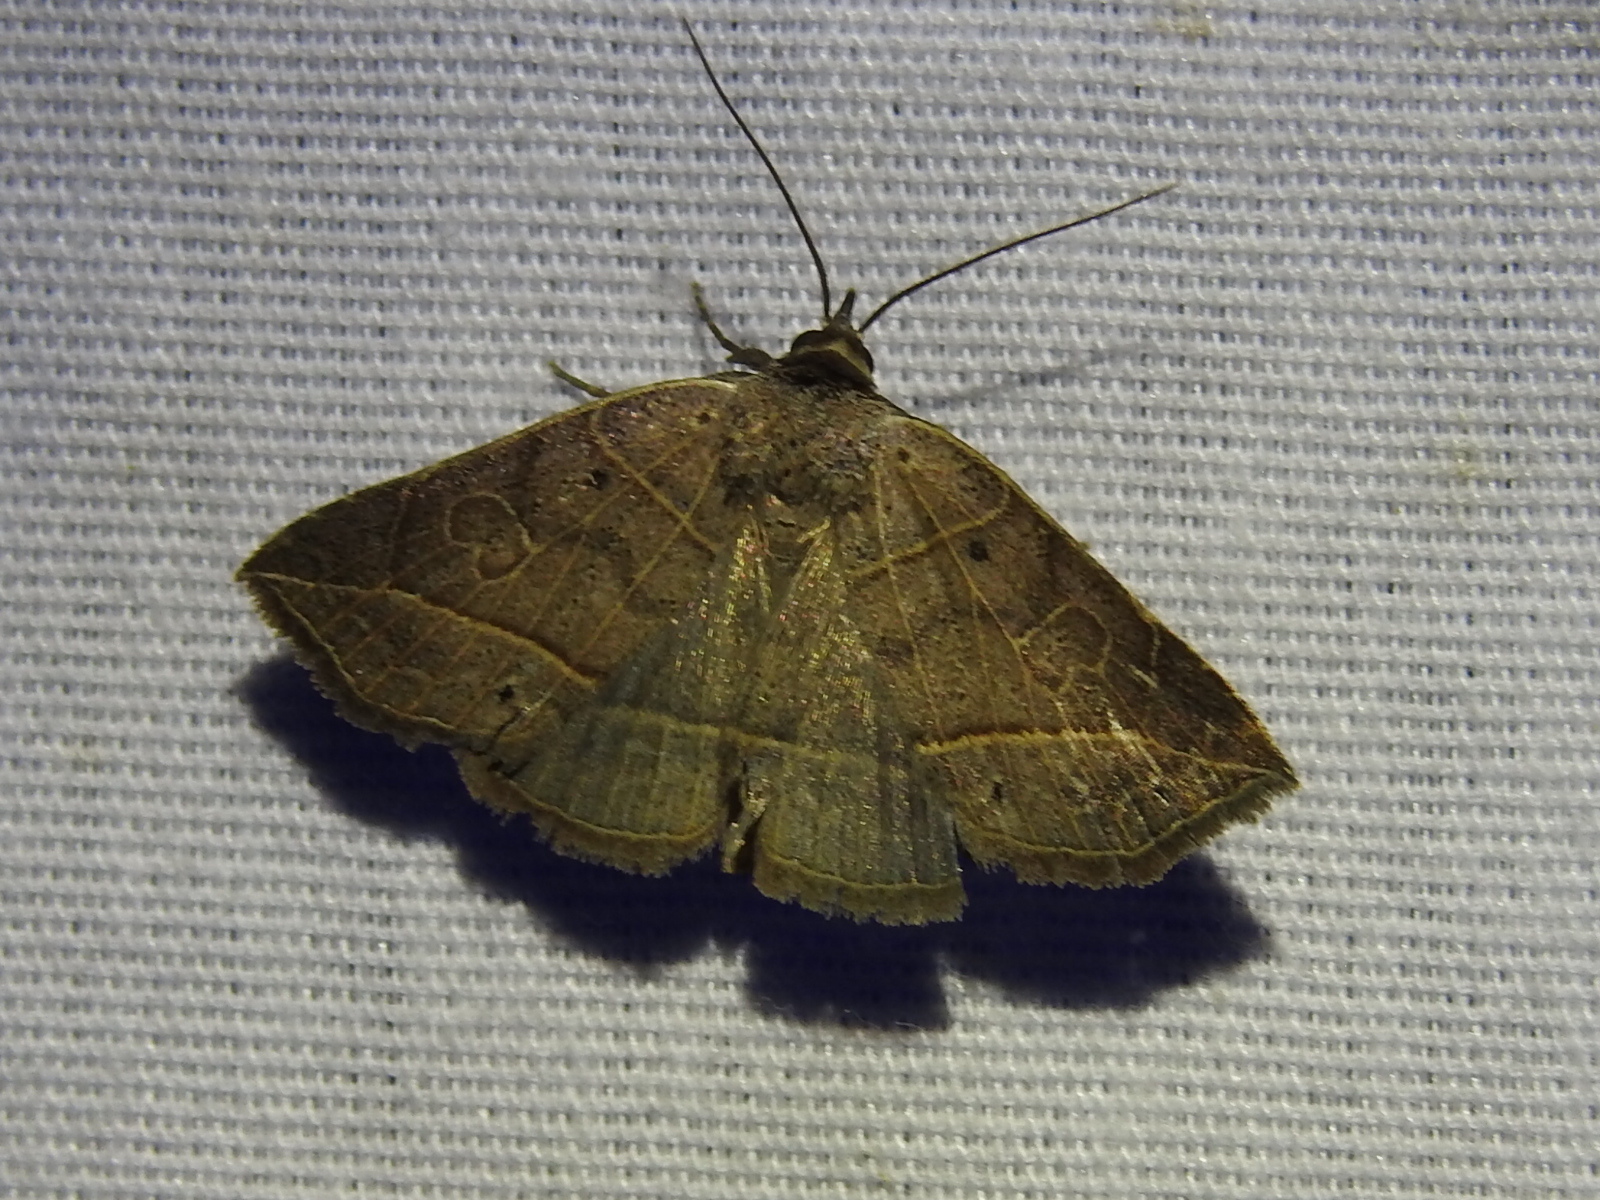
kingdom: Animalia
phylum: Arthropoda
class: Insecta
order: Lepidoptera
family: Erebidae
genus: Isogona
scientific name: Isogona tenuis
